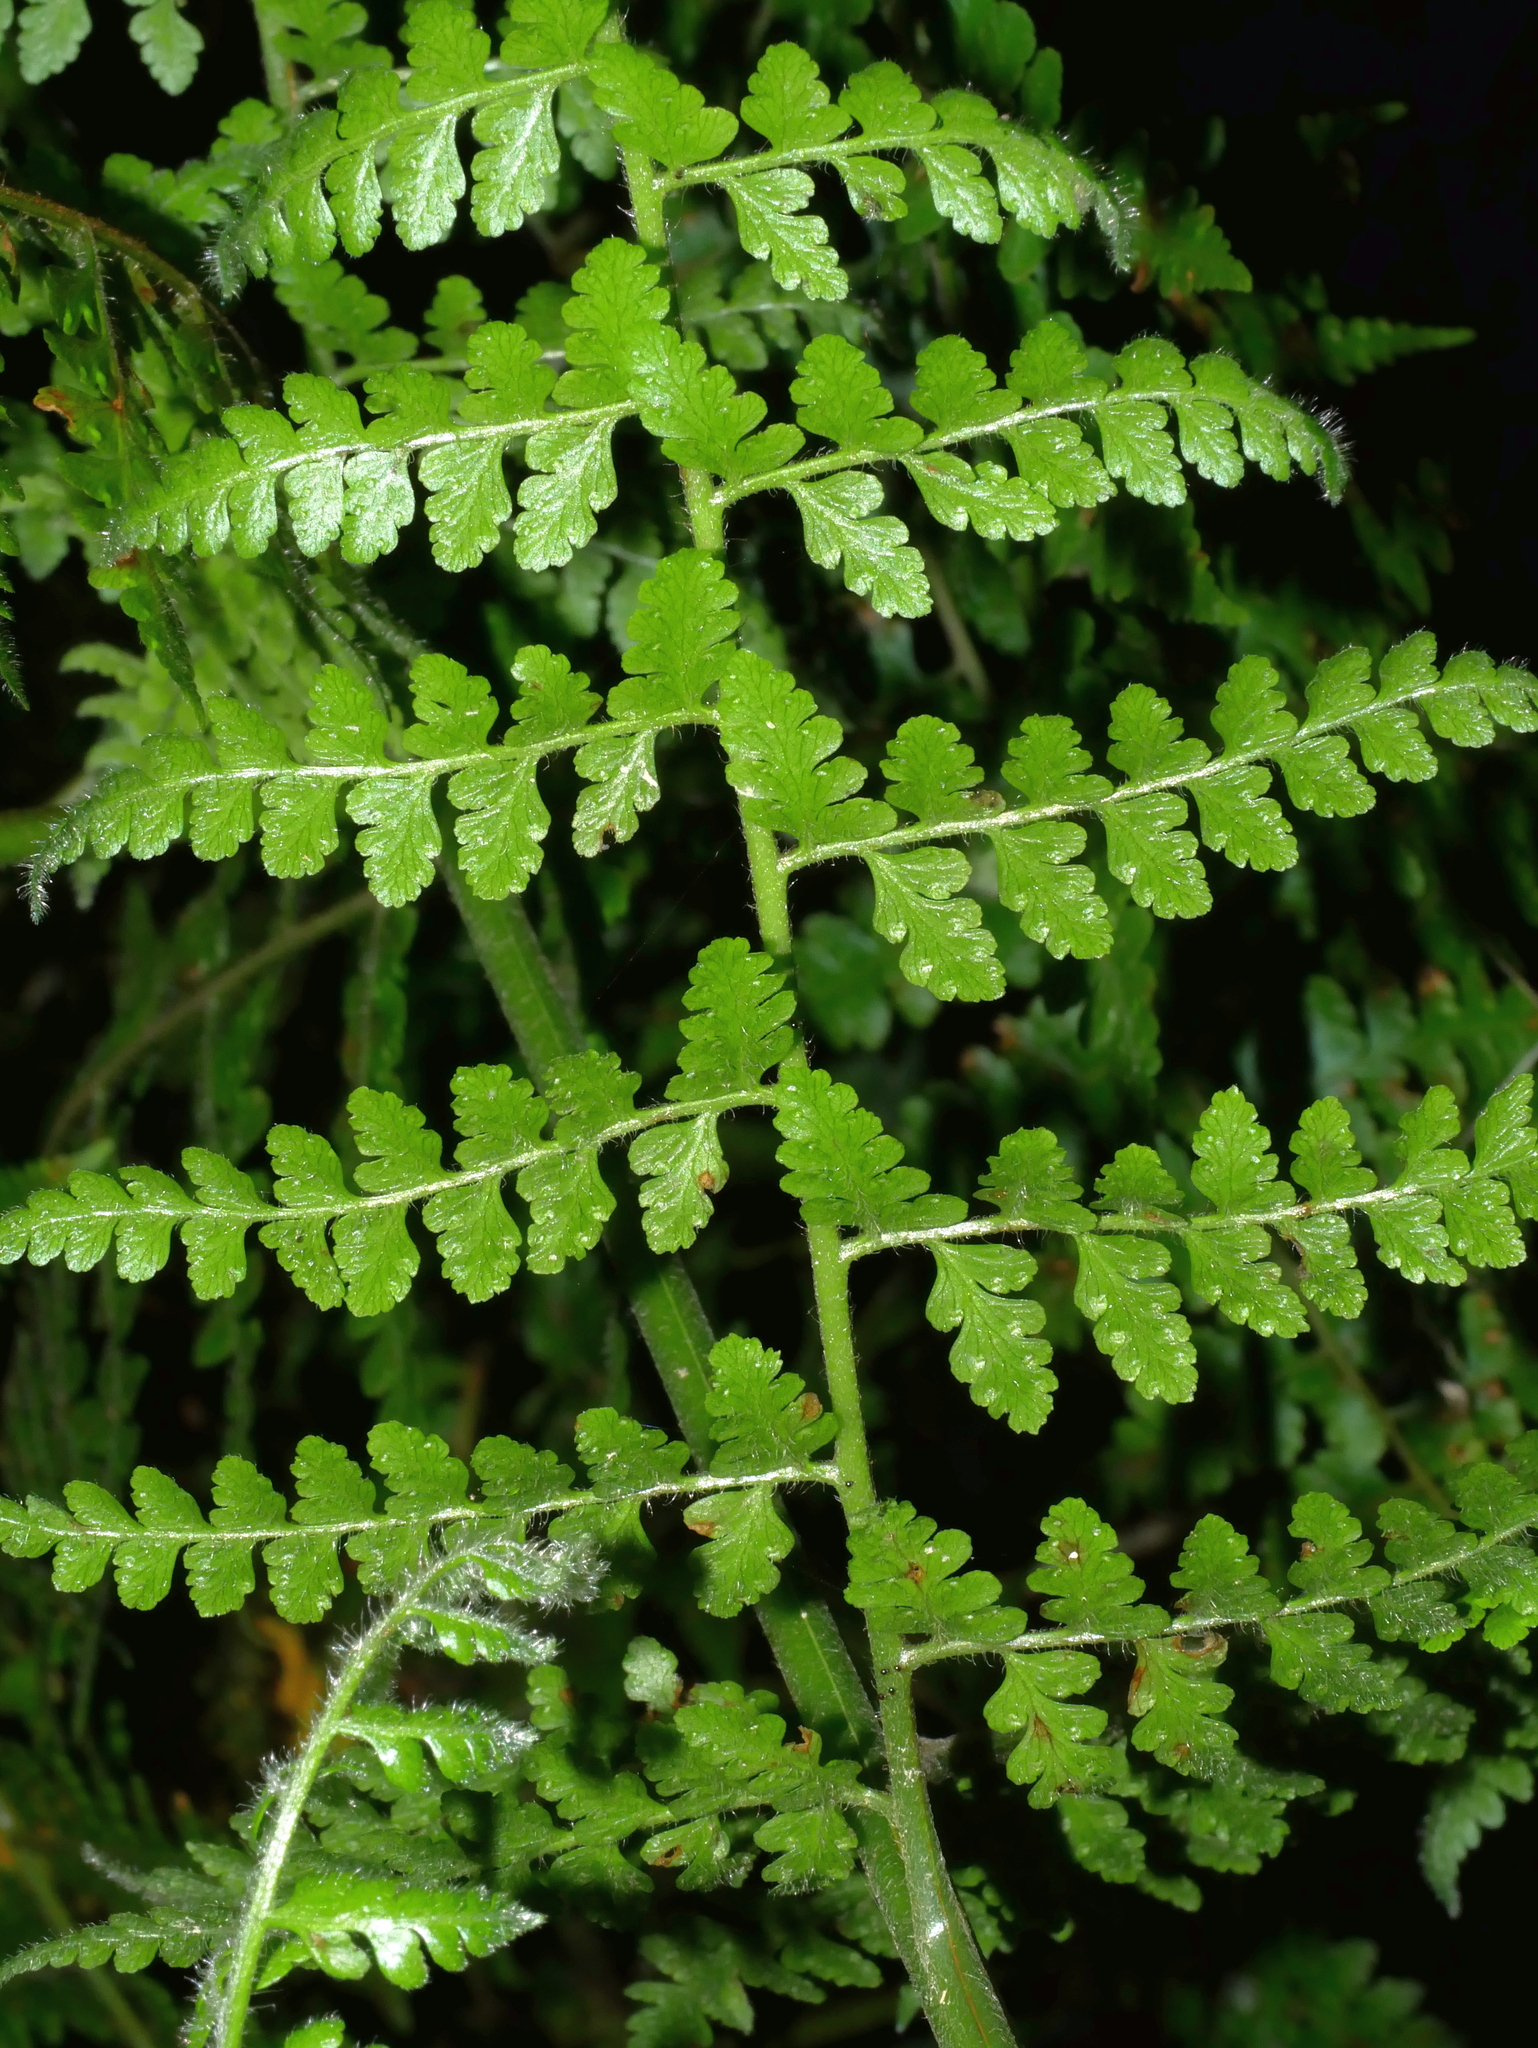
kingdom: Plantae
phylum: Tracheophyta
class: Polypodiopsida
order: Polypodiales
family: Dennstaedtiaceae
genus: Microlepia
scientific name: Microlepia nepalensis
